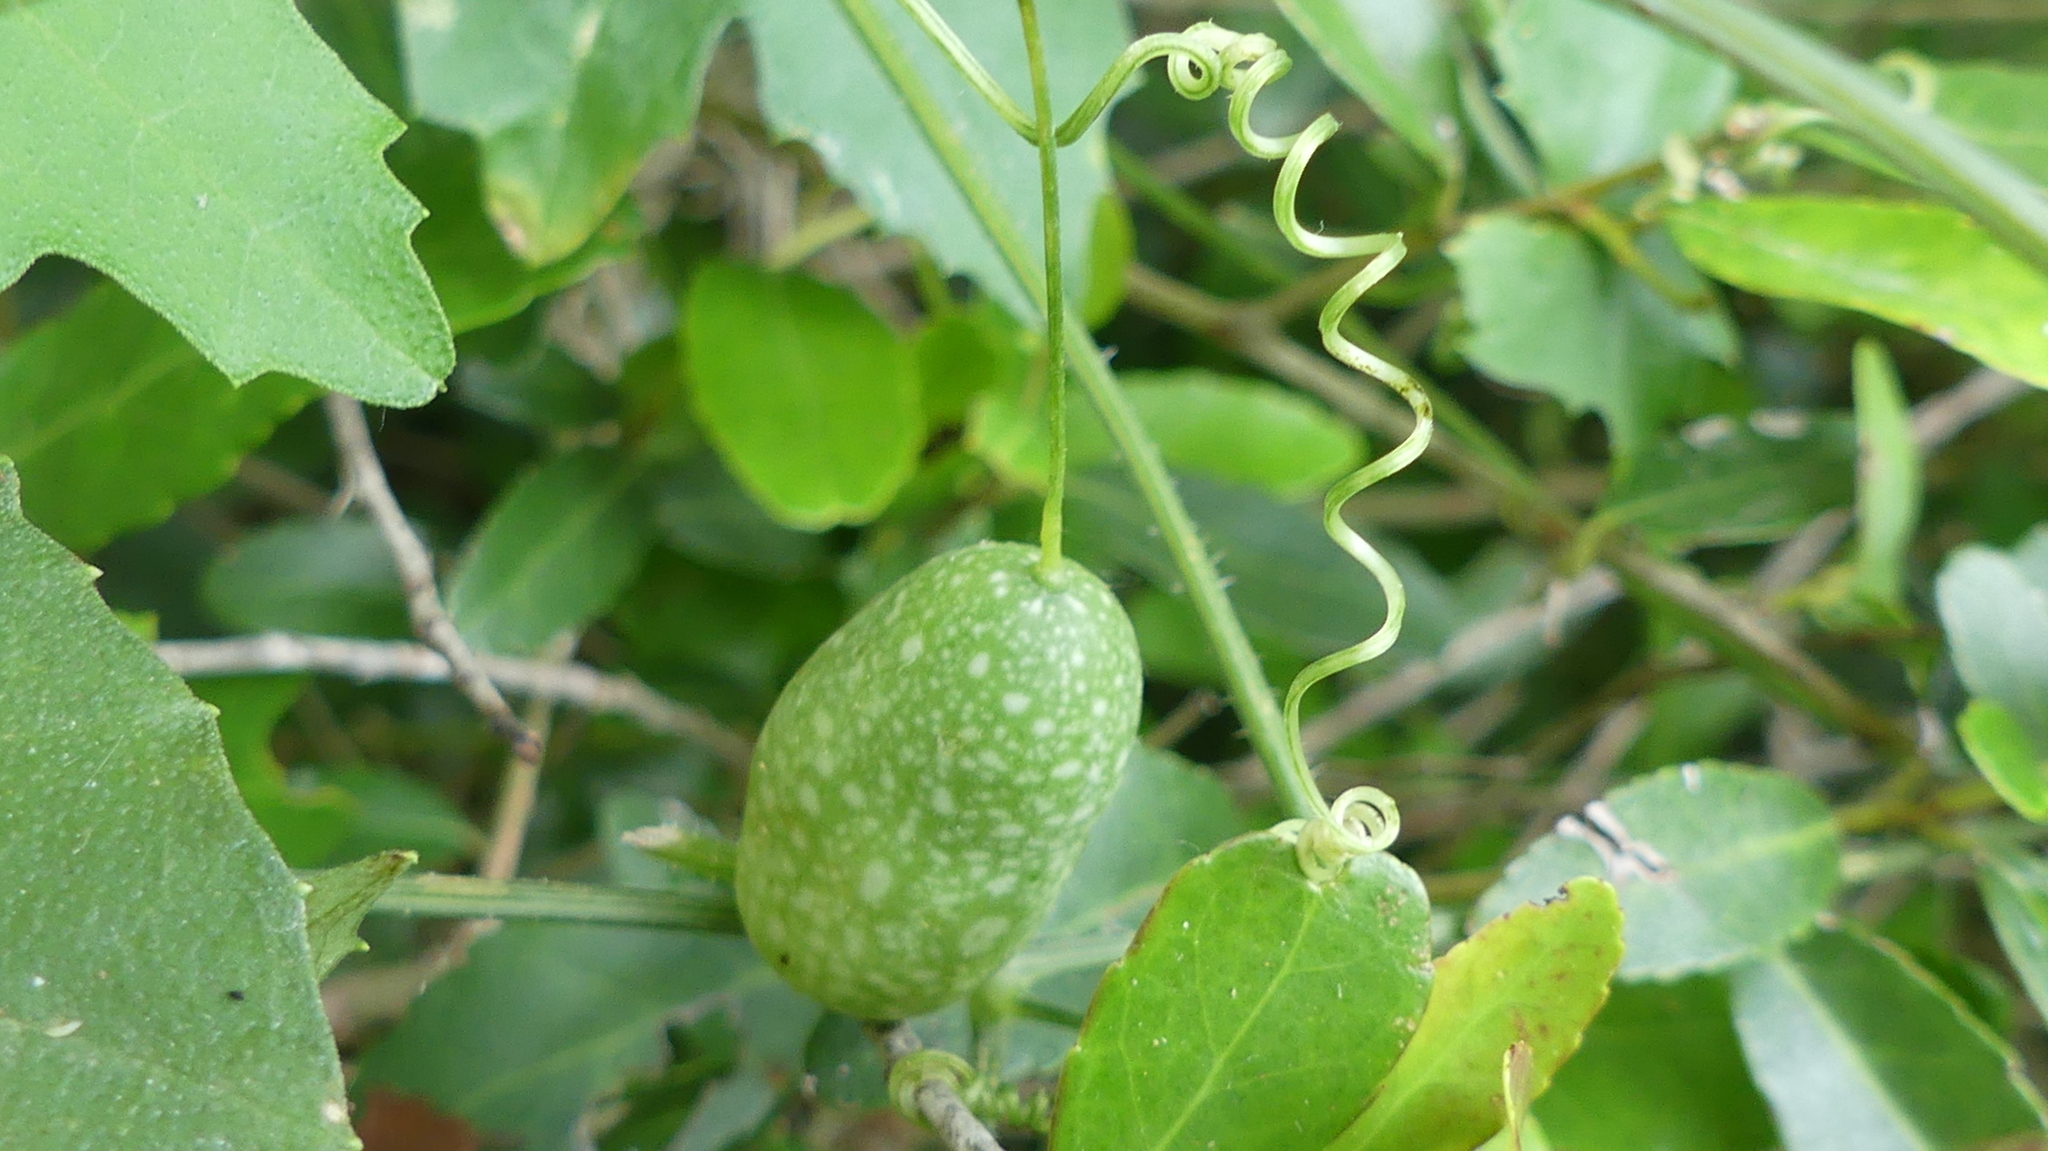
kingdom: Plantae
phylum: Tracheophyta
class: Magnoliopsida
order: Cucurbitales
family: Cucurbitaceae
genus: Melothria
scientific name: Melothria pendula
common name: Creeping-cucumber
